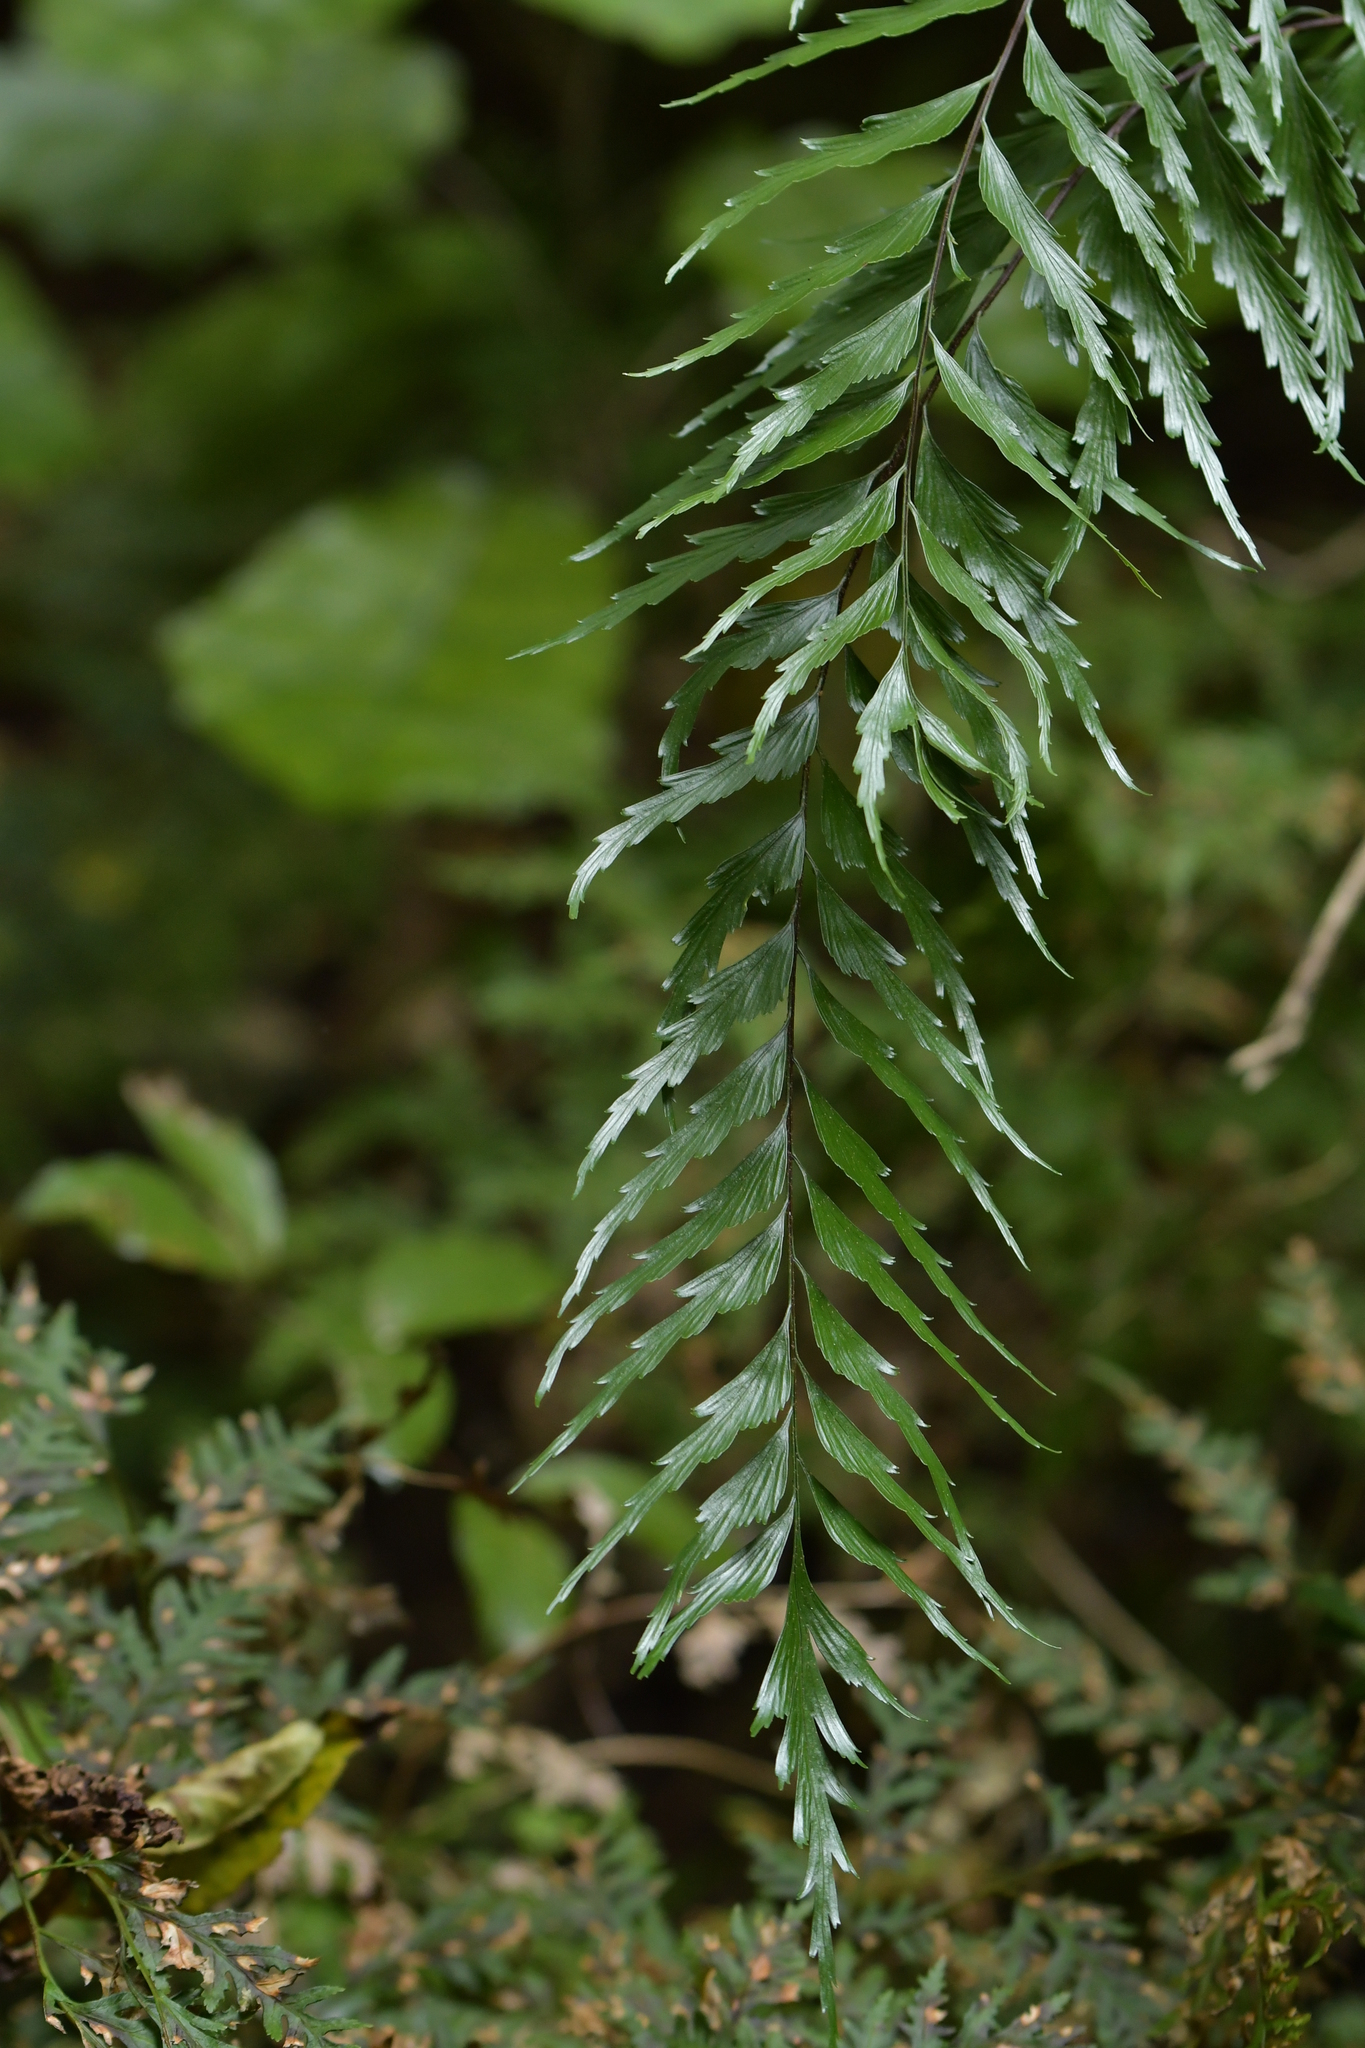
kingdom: Plantae
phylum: Tracheophyta
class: Polypodiopsida
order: Polypodiales
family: Aspleniaceae
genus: Asplenium
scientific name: Asplenium polyodon
